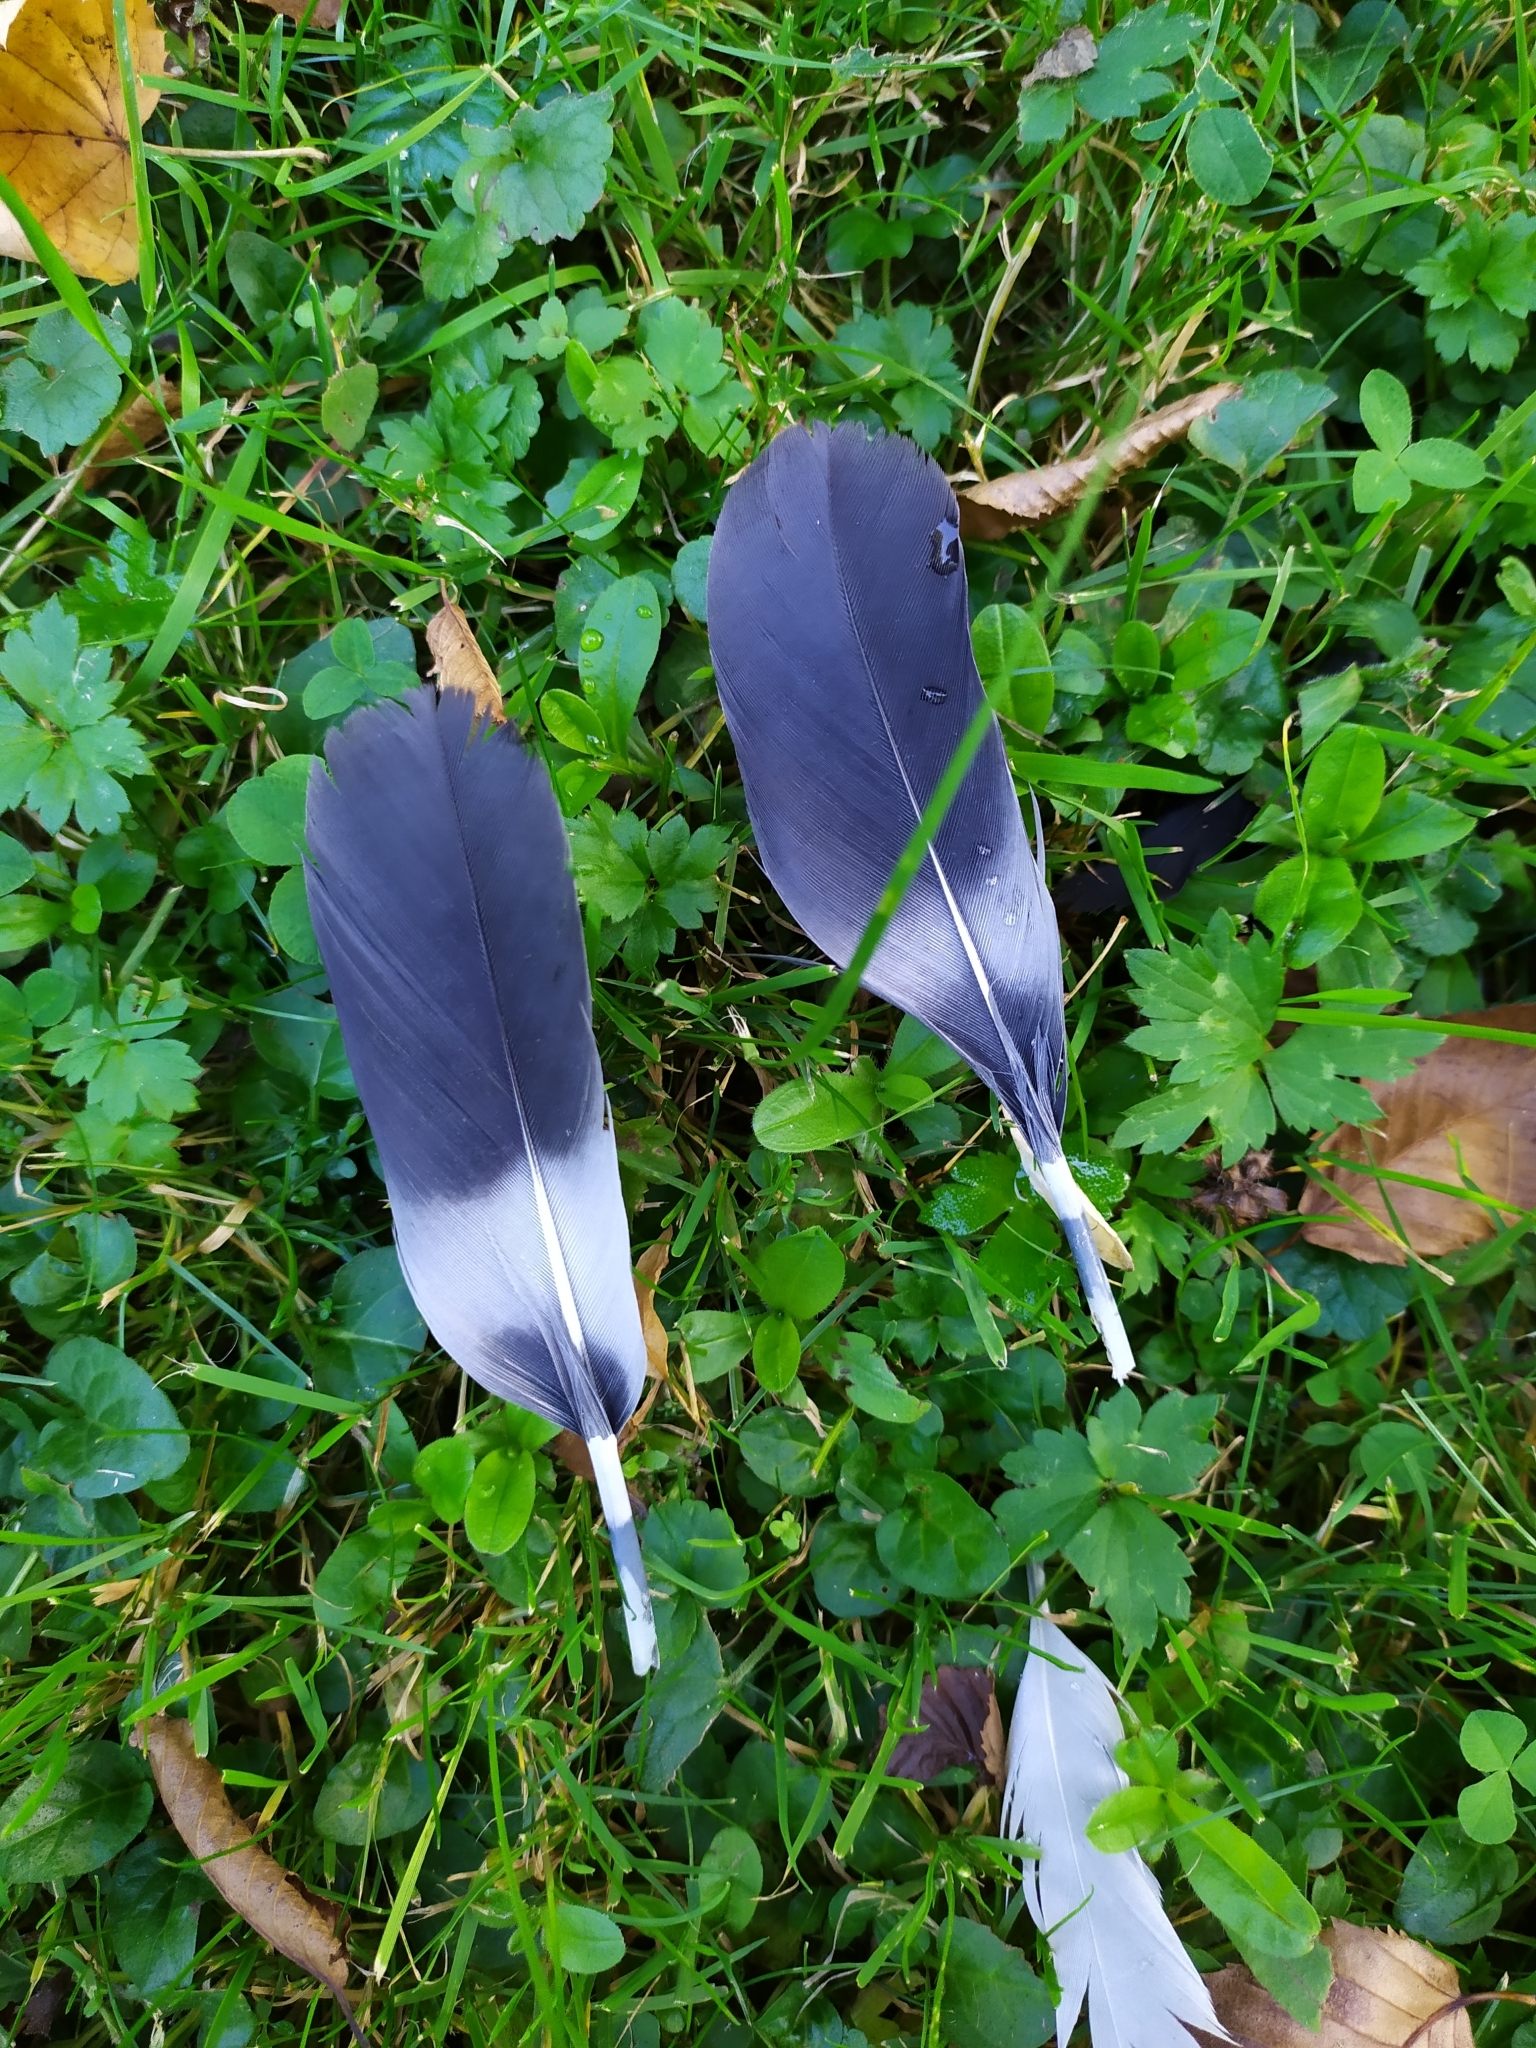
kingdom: Animalia
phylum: Chordata
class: Aves
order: Columbiformes
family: Columbidae
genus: Columba
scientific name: Columba palumbus
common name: Common wood pigeon
